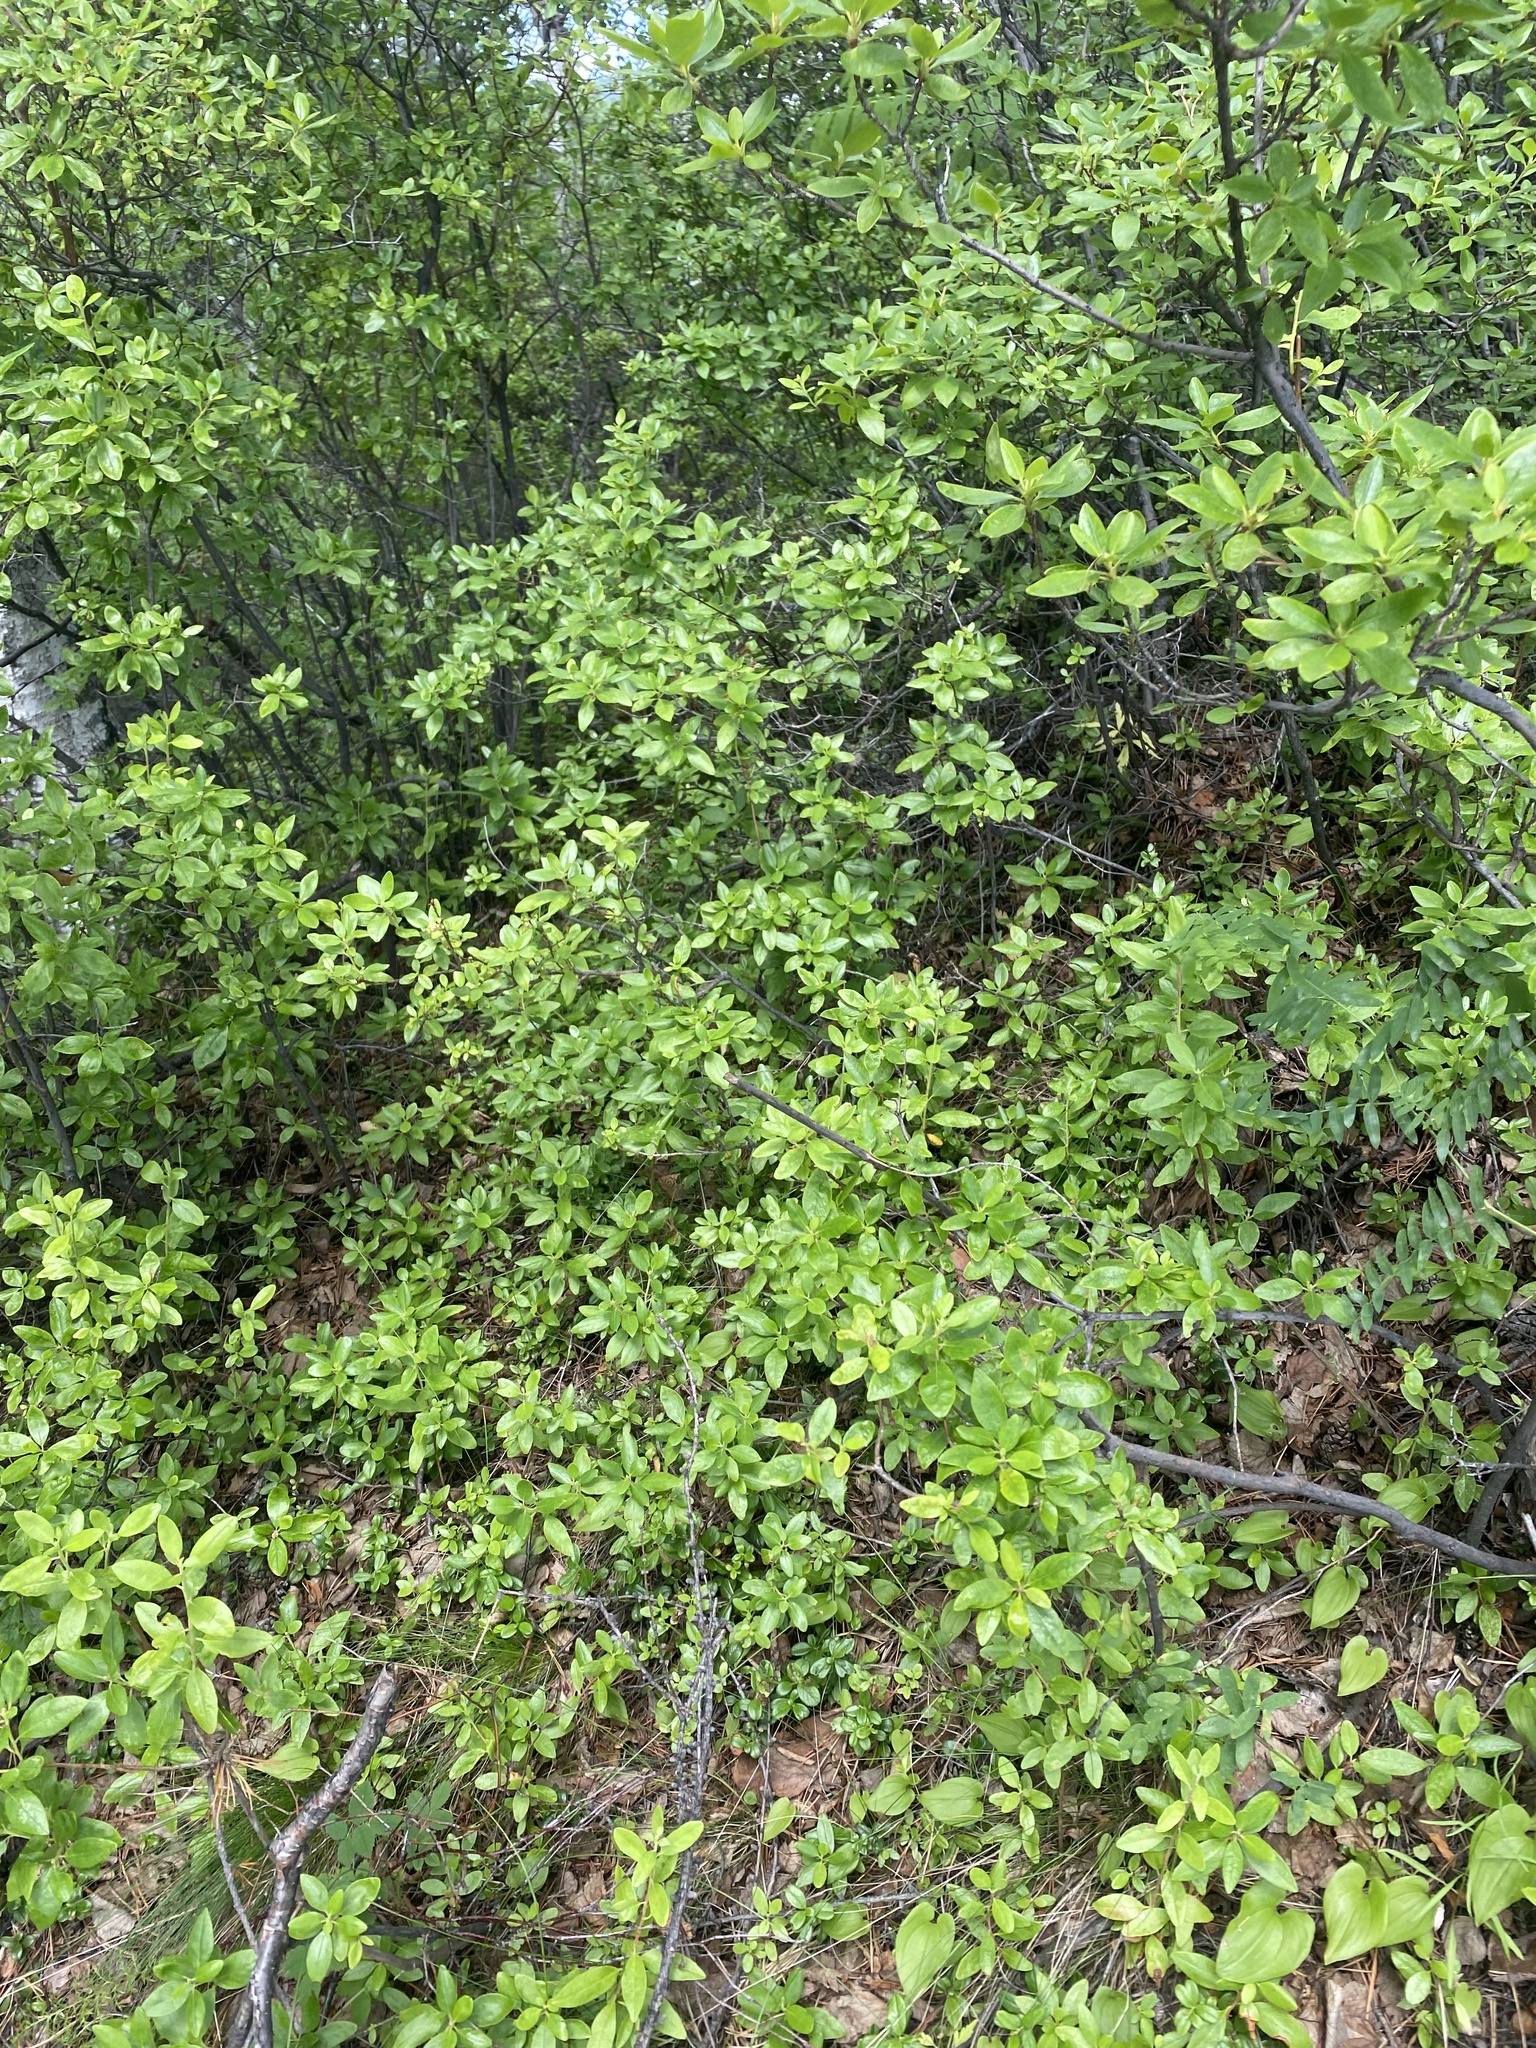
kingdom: Plantae
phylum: Tracheophyta
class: Magnoliopsida
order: Ericales
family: Ericaceae
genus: Rhododendron
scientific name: Rhododendron dauricum
